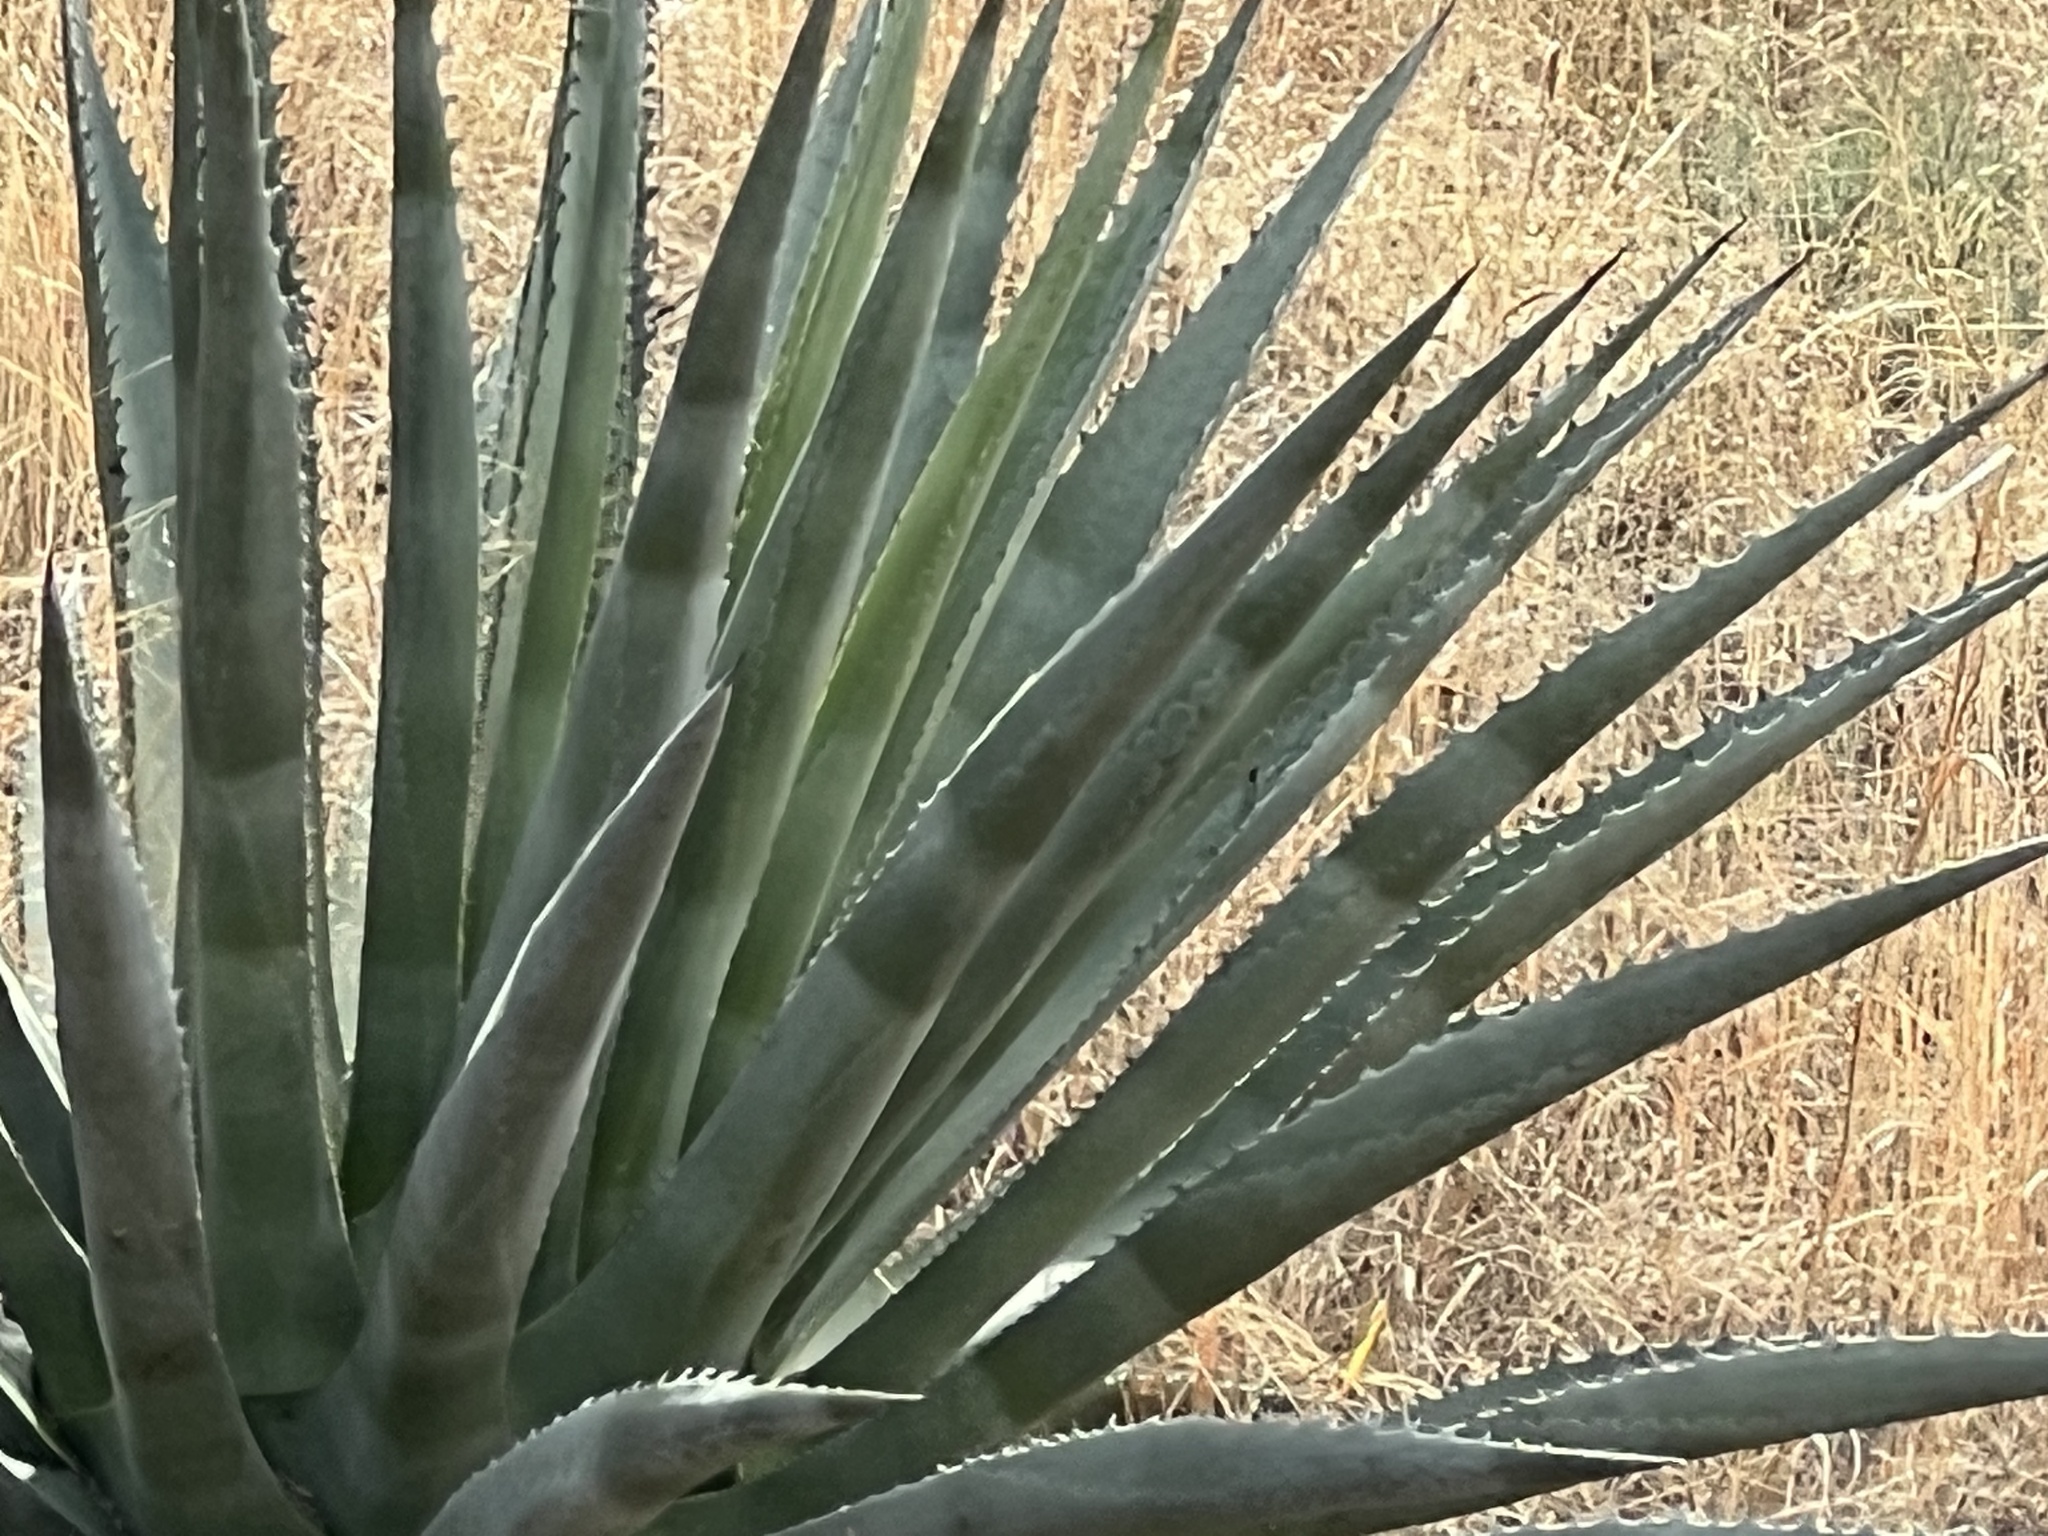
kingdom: Plantae
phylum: Tracheophyta
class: Liliopsida
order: Asparagales
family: Asparagaceae
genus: Agave
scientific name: Agave palmeri
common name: Palmer agave
